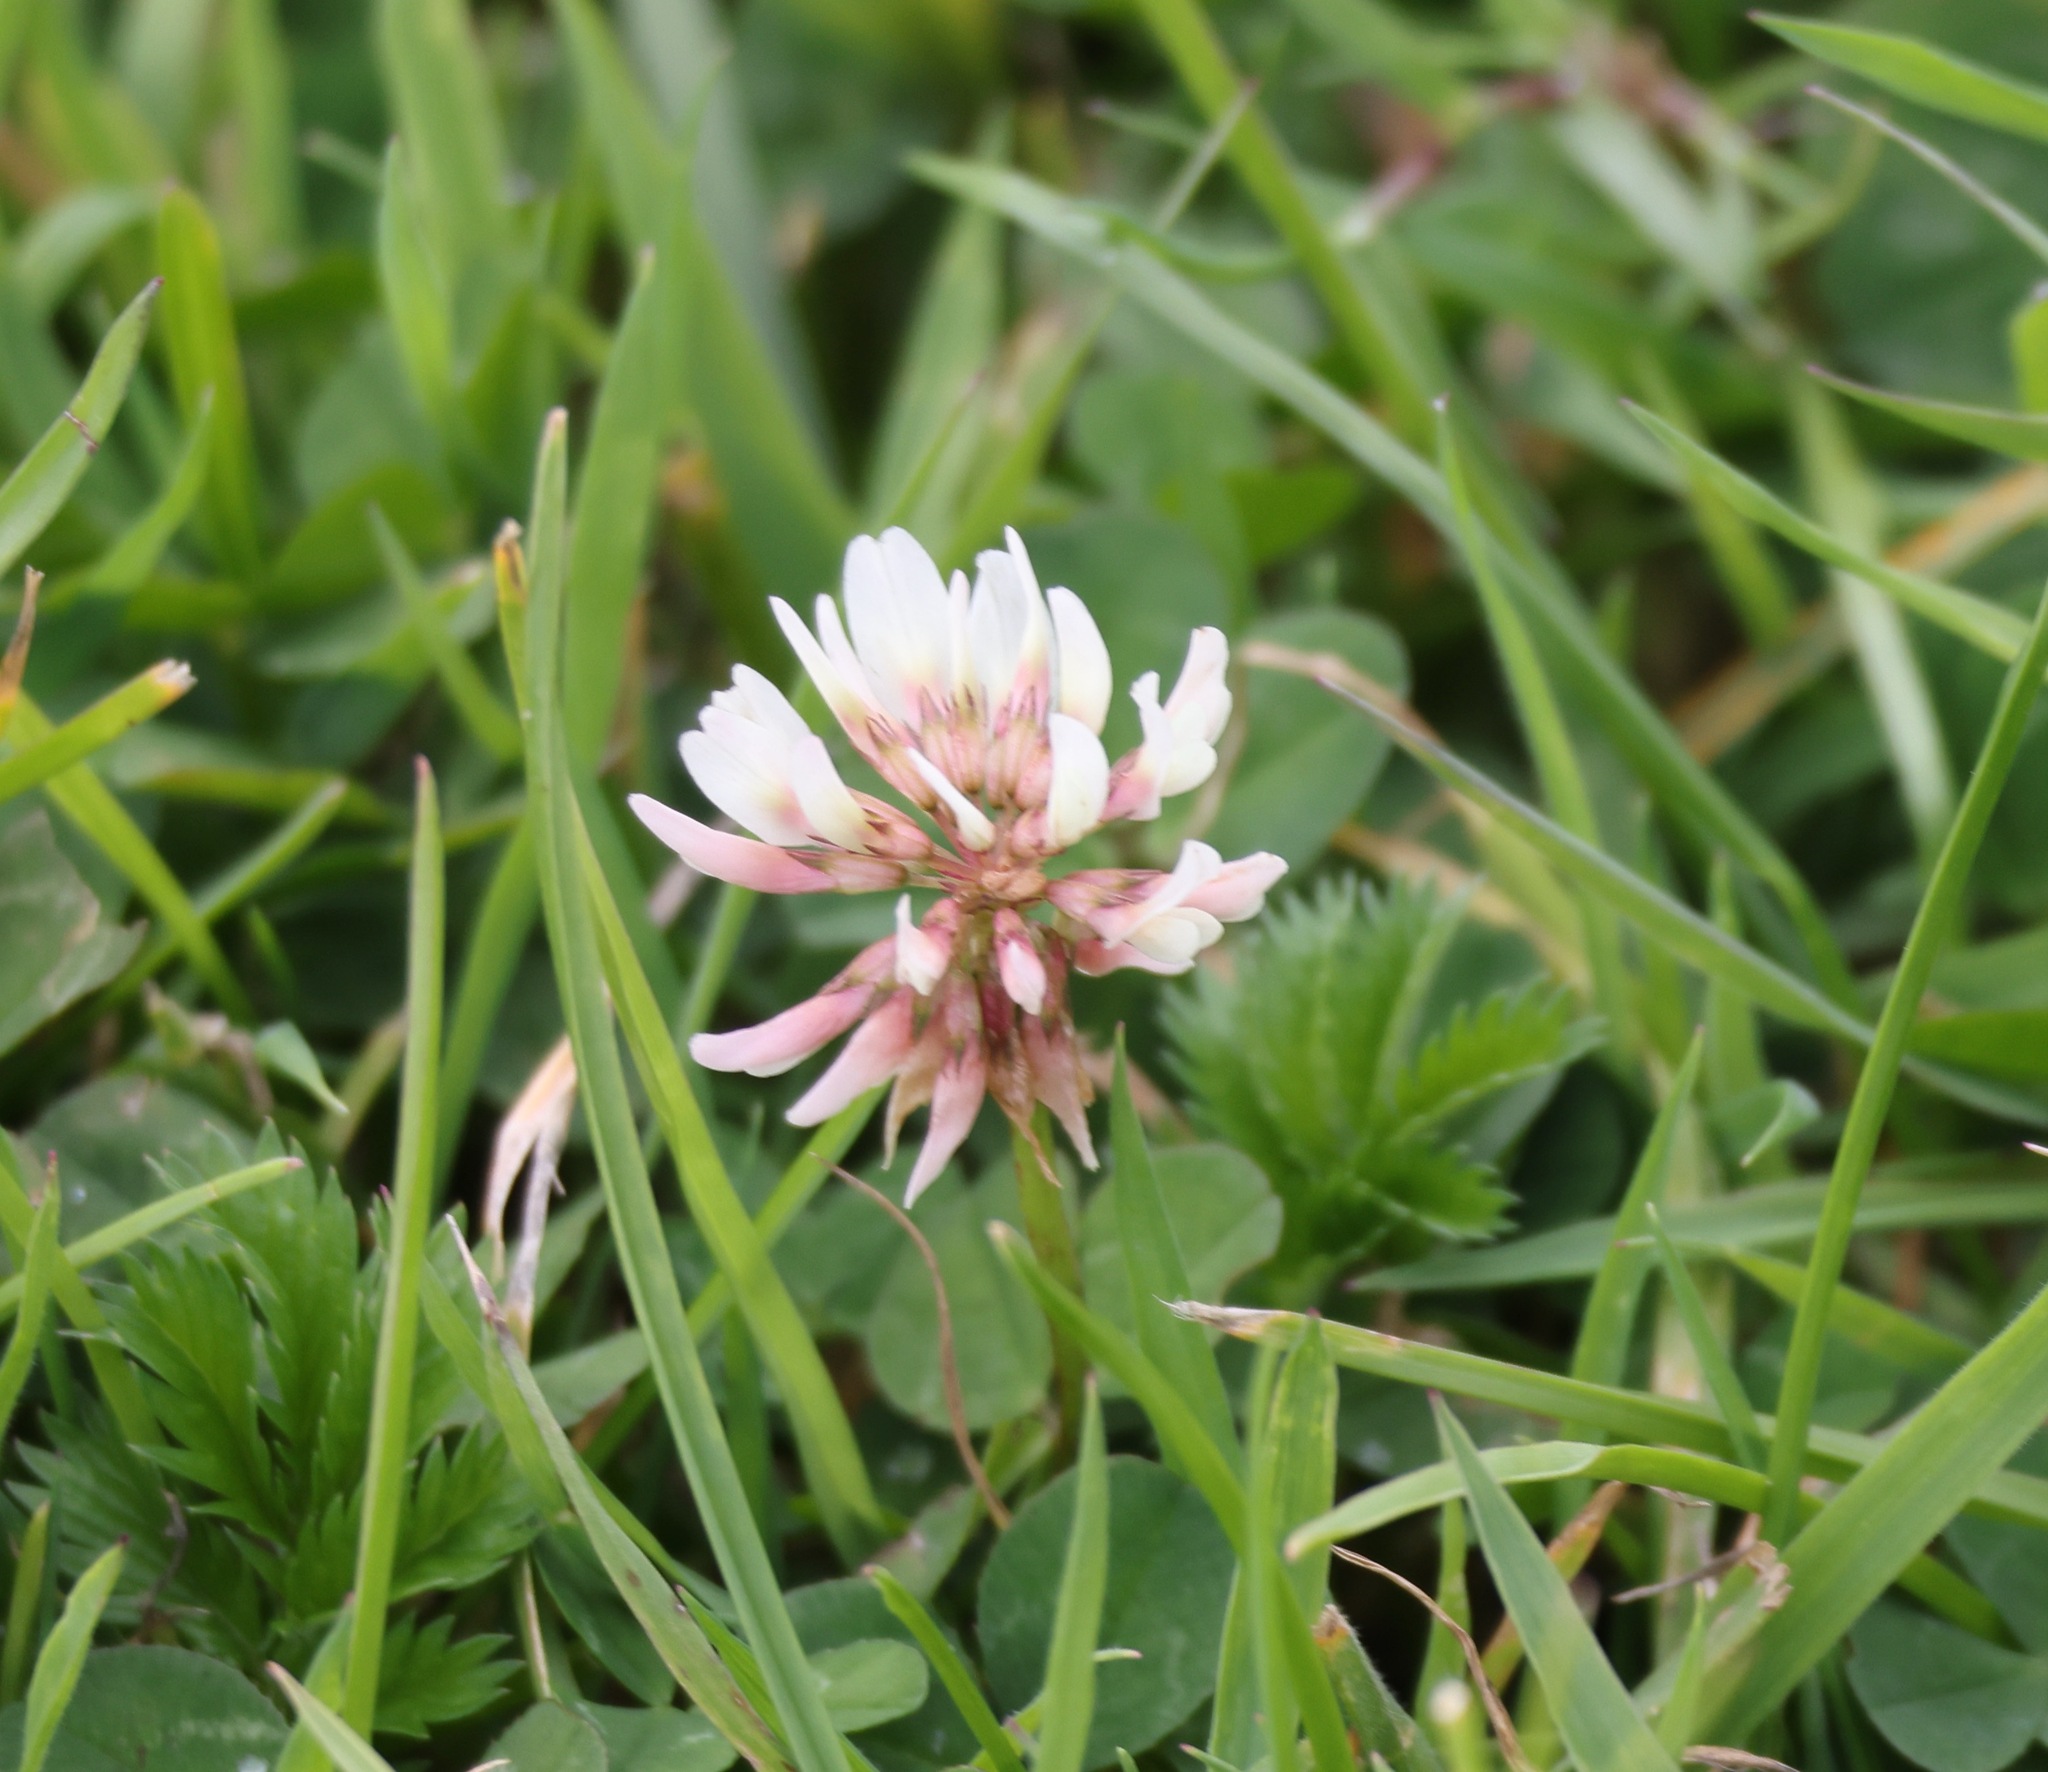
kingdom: Plantae
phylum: Tracheophyta
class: Magnoliopsida
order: Fabales
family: Fabaceae
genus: Trifolium
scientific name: Trifolium repens
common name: White clover
